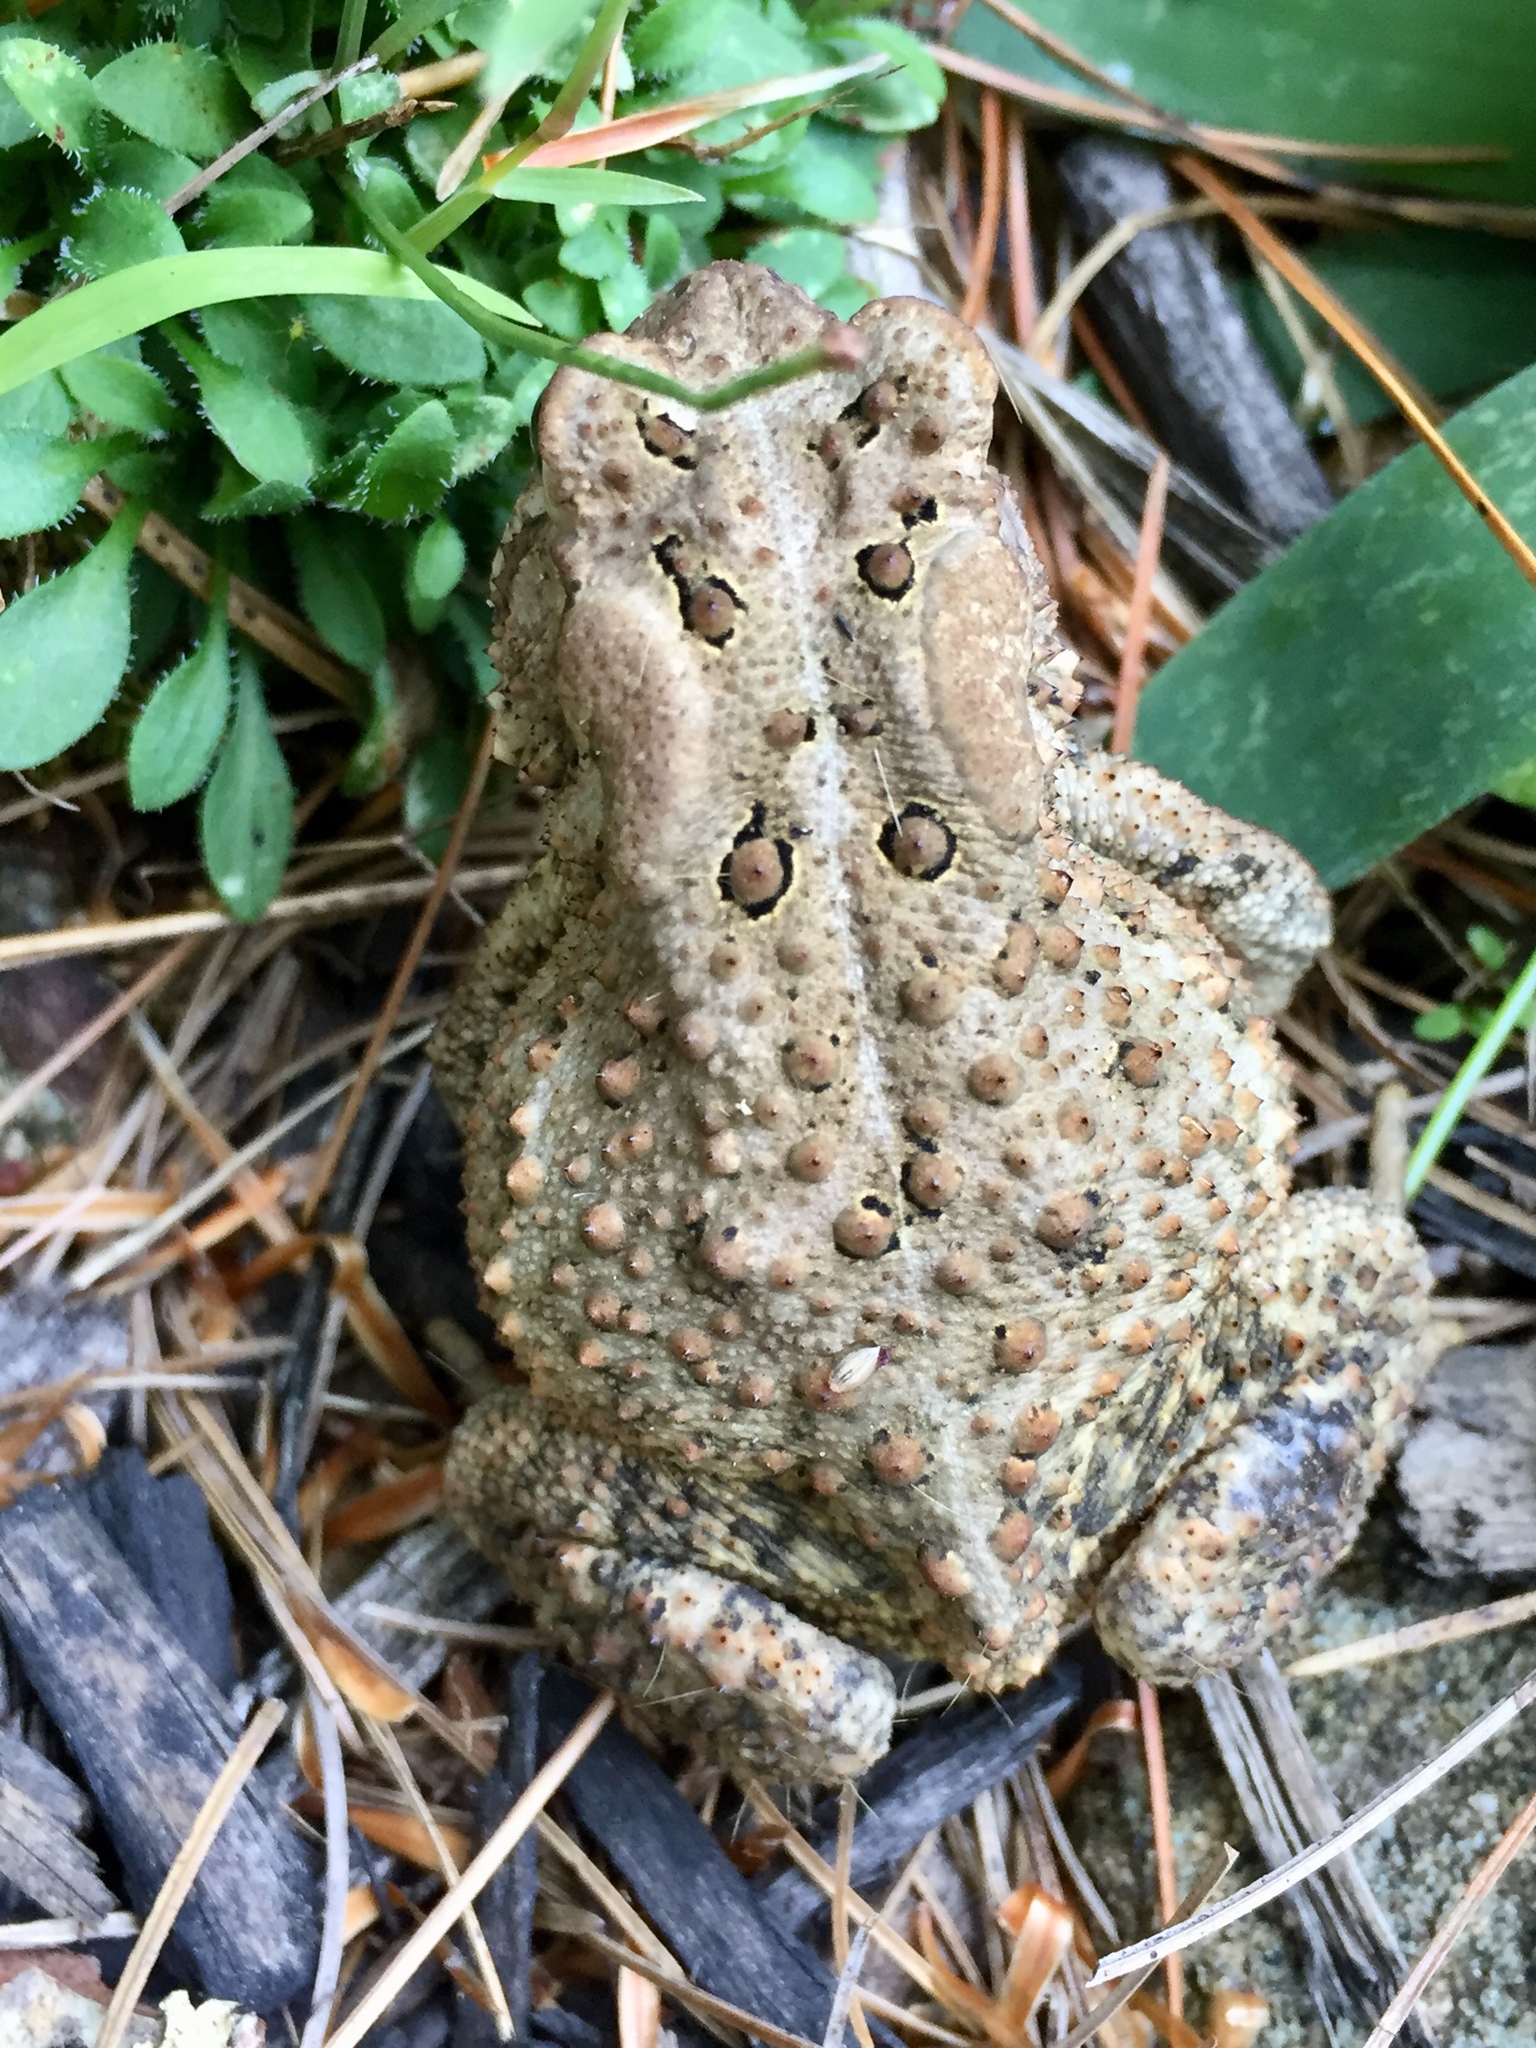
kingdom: Animalia
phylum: Chordata
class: Amphibia
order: Anura
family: Bufonidae
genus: Anaxyrus
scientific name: Anaxyrus americanus
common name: American toad
